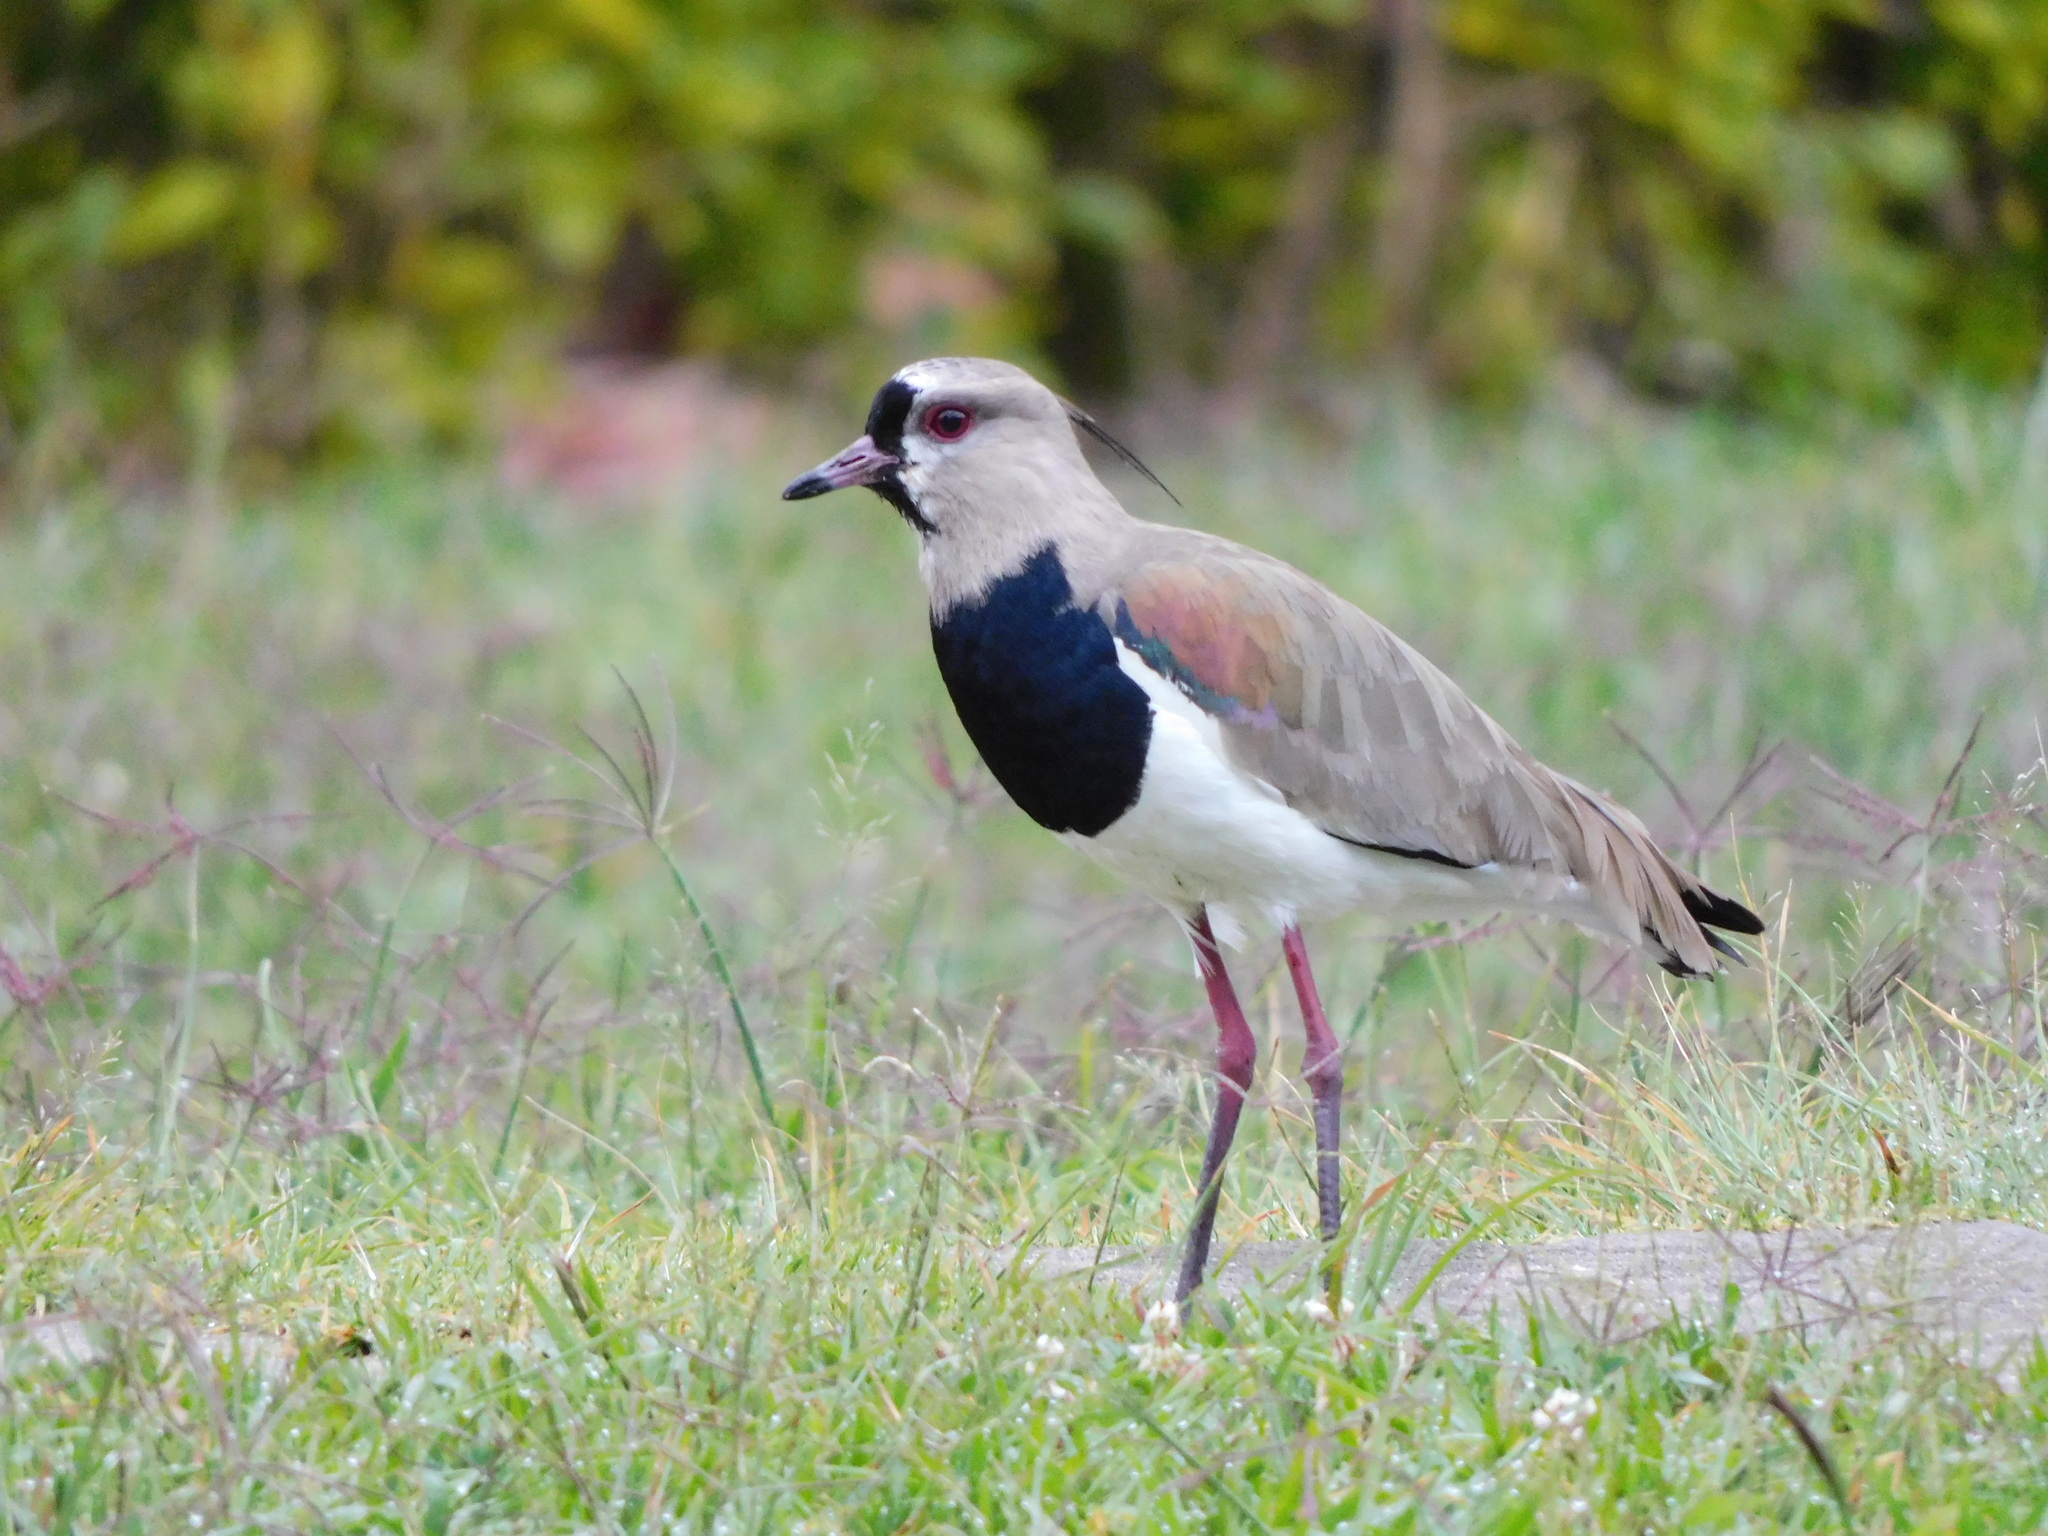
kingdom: Animalia
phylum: Chordata
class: Aves
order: Charadriiformes
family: Charadriidae
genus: Vanellus
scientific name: Vanellus chilensis
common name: Southern lapwing
